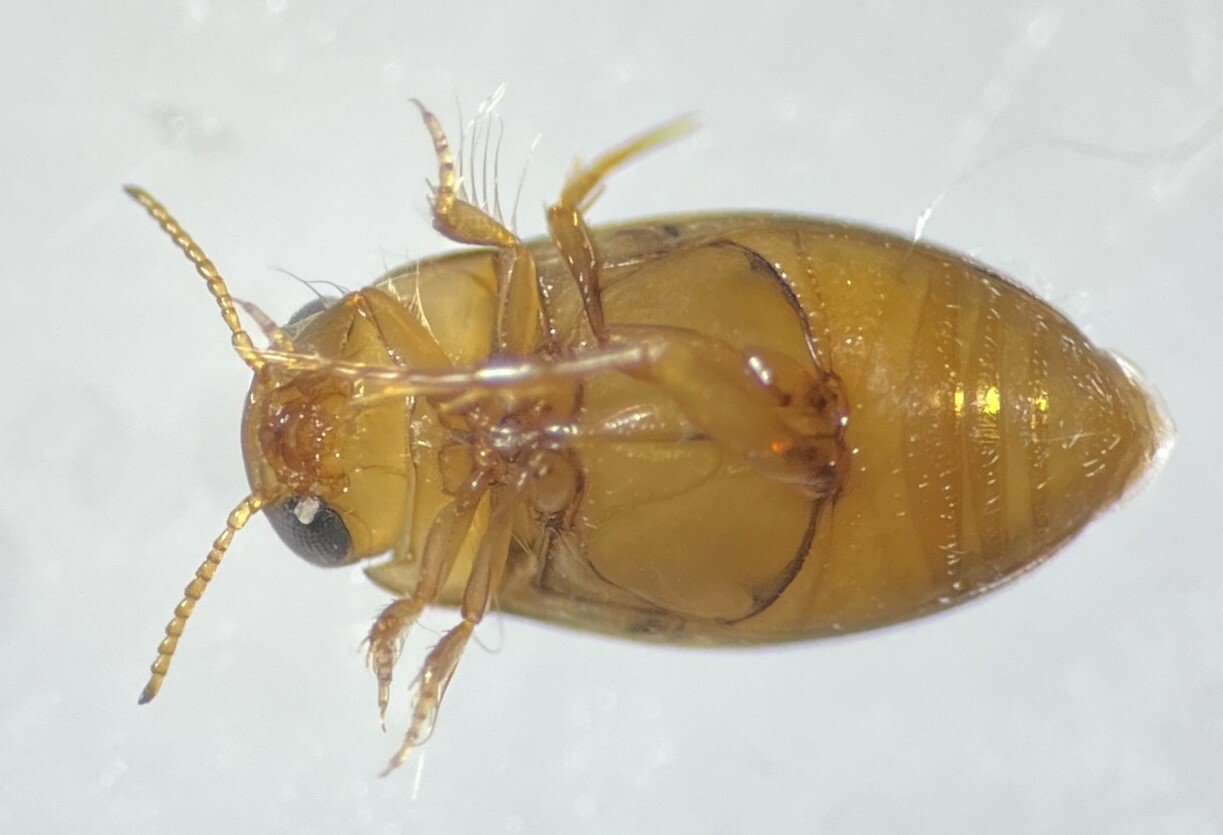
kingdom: Animalia
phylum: Arthropoda
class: Insecta
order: Coleoptera
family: Dytiscidae
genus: Neobidessus
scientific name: Neobidessus pullus
